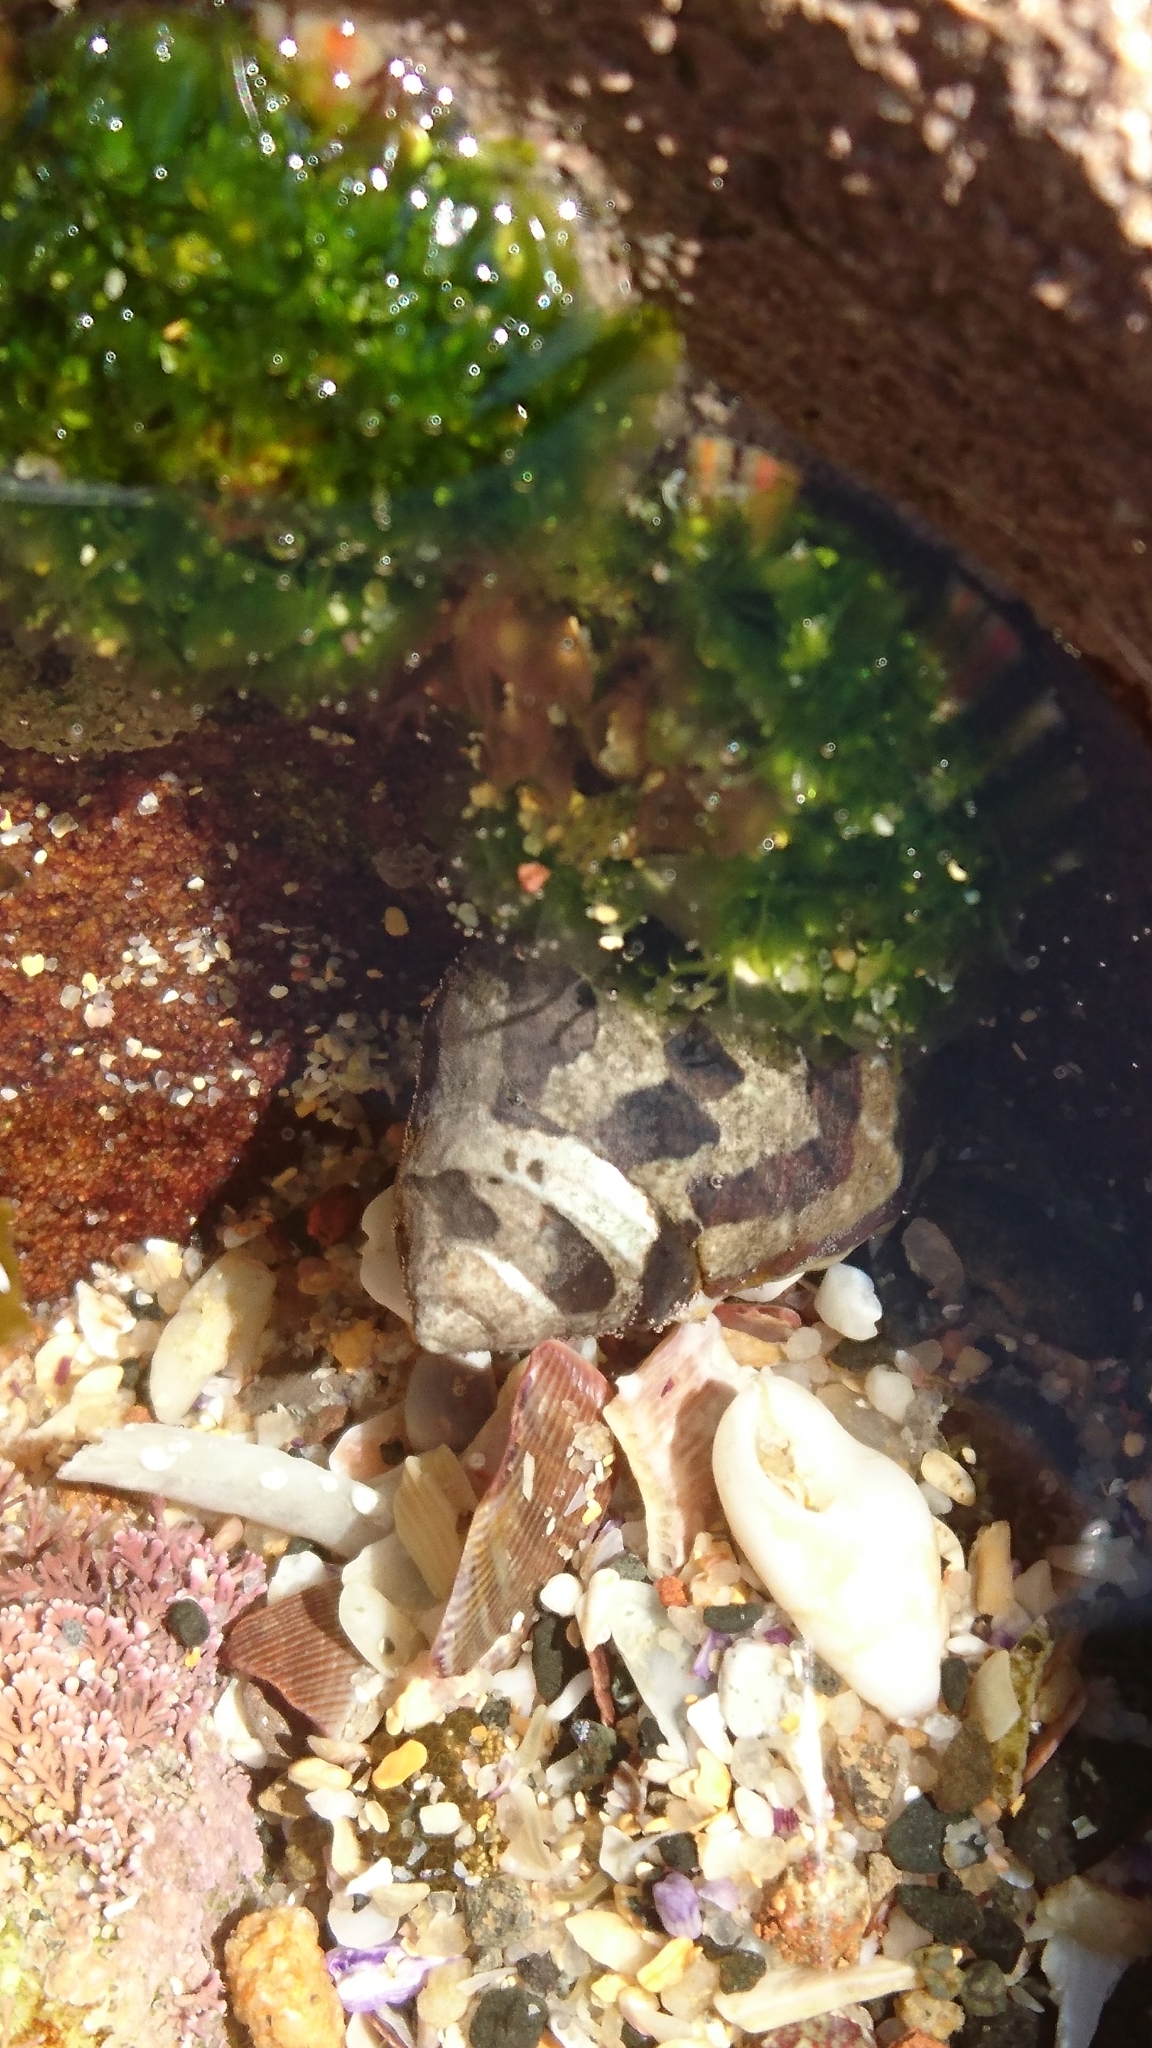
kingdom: Animalia
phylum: Mollusca
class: Gastropoda
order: Trochida
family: Trochidae
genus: Austrocochlea
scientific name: Austrocochlea porcata
